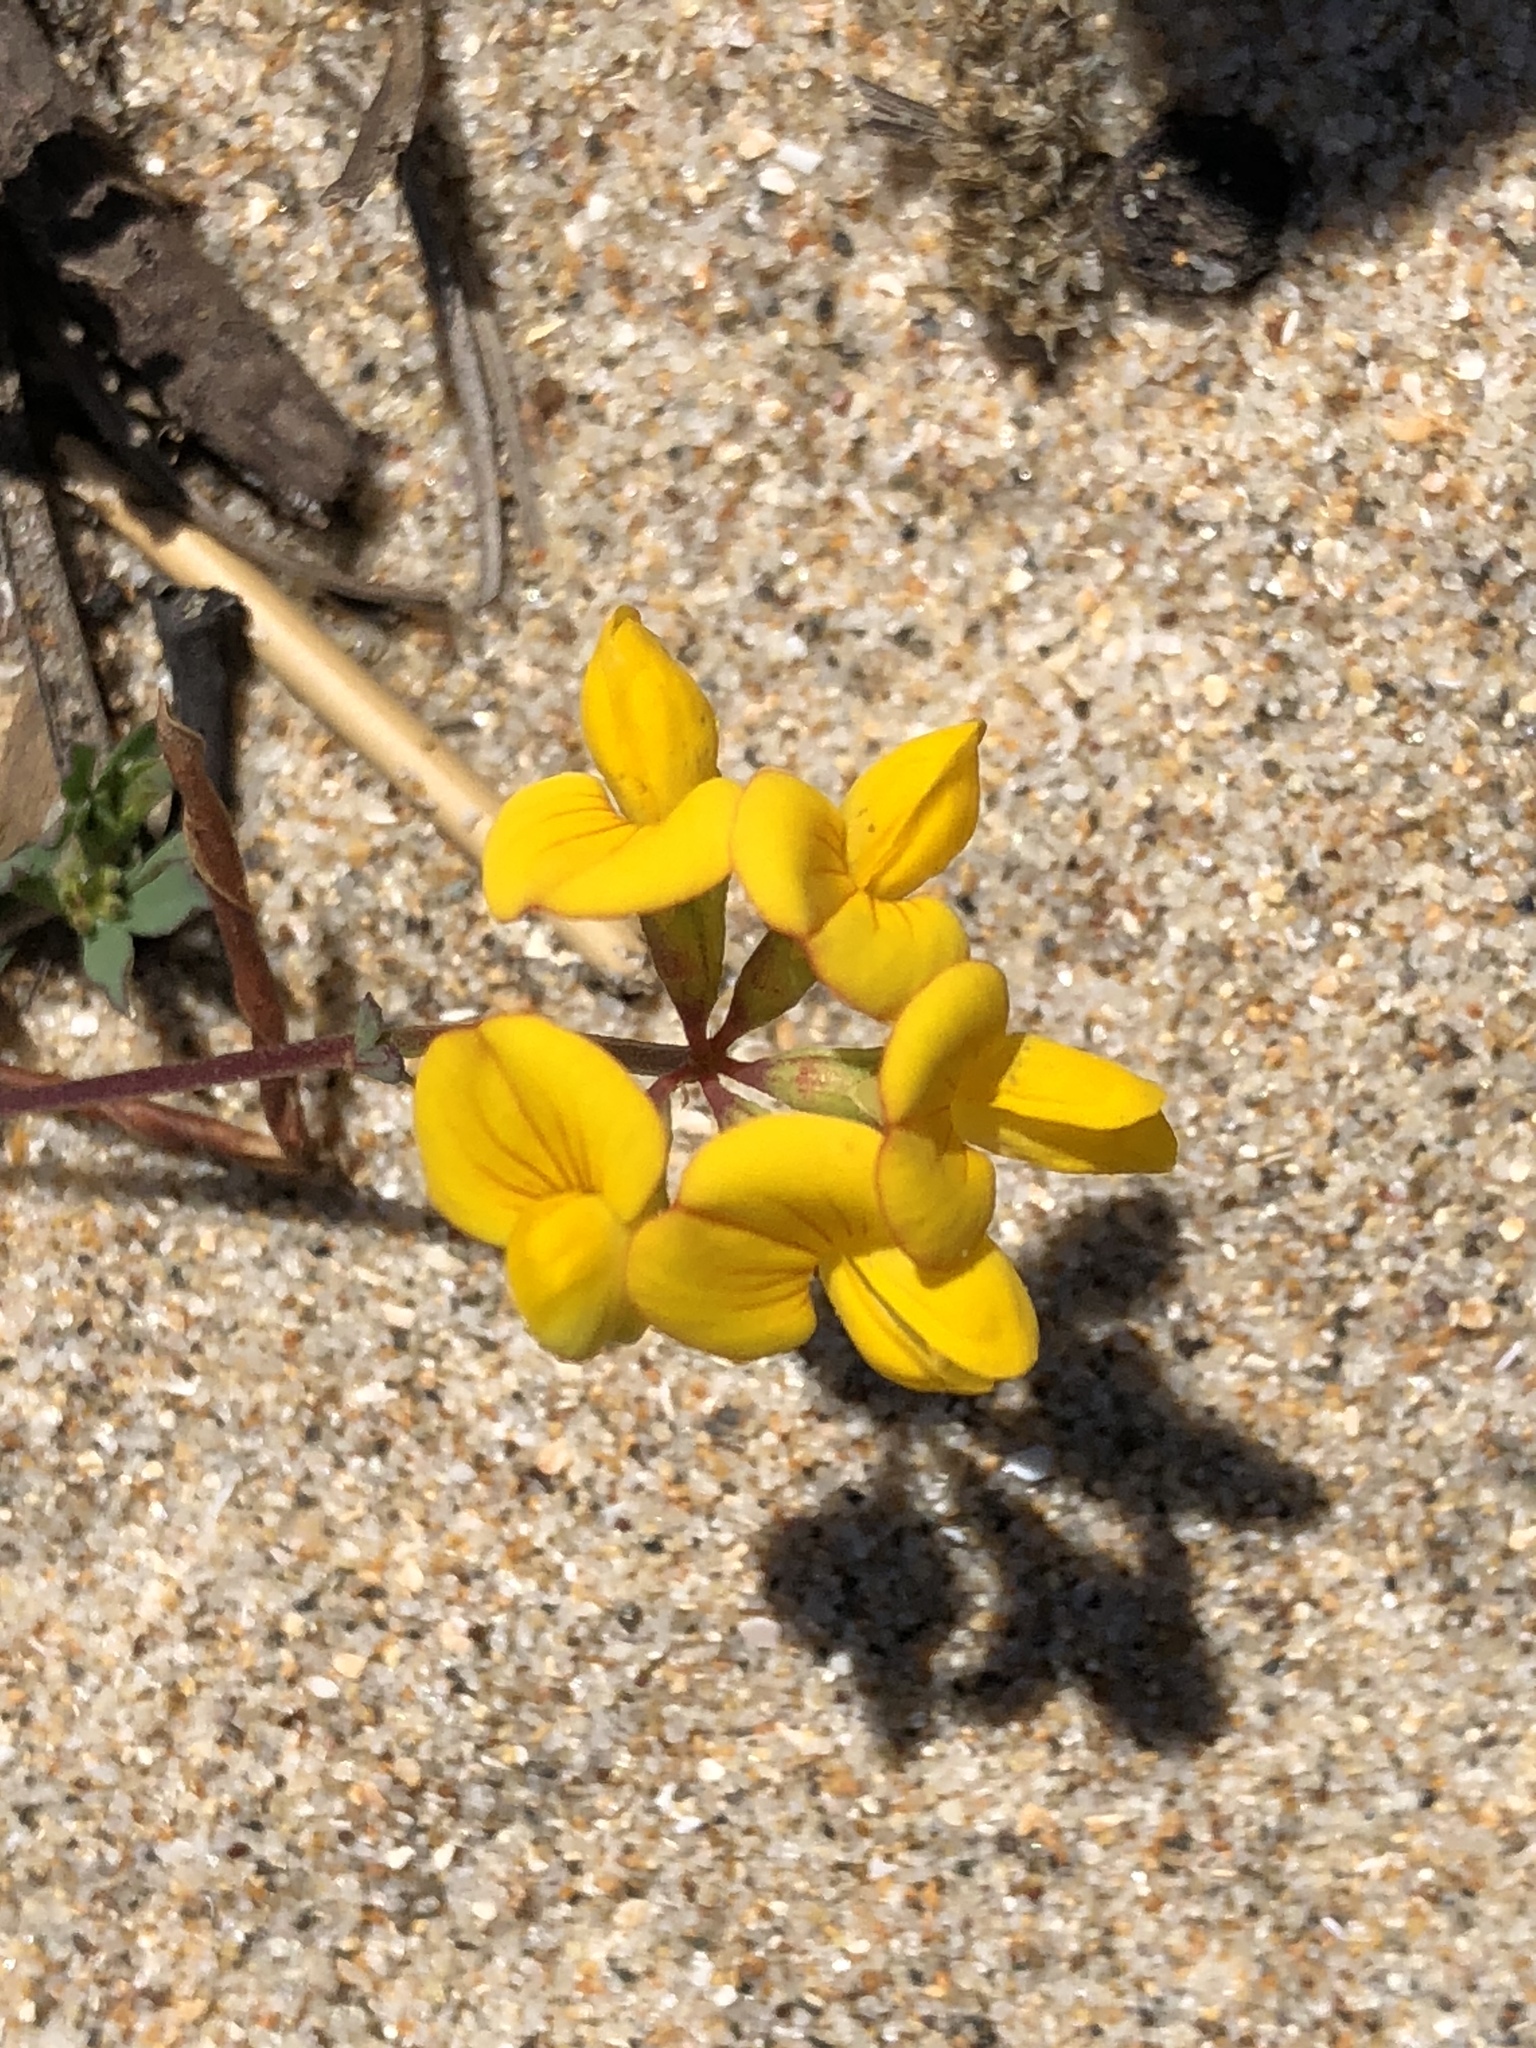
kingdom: Plantae
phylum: Tracheophyta
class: Magnoliopsida
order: Fabales
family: Fabaceae
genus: Lotus
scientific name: Lotus corniculatus
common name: Common bird's-foot-trefoil
